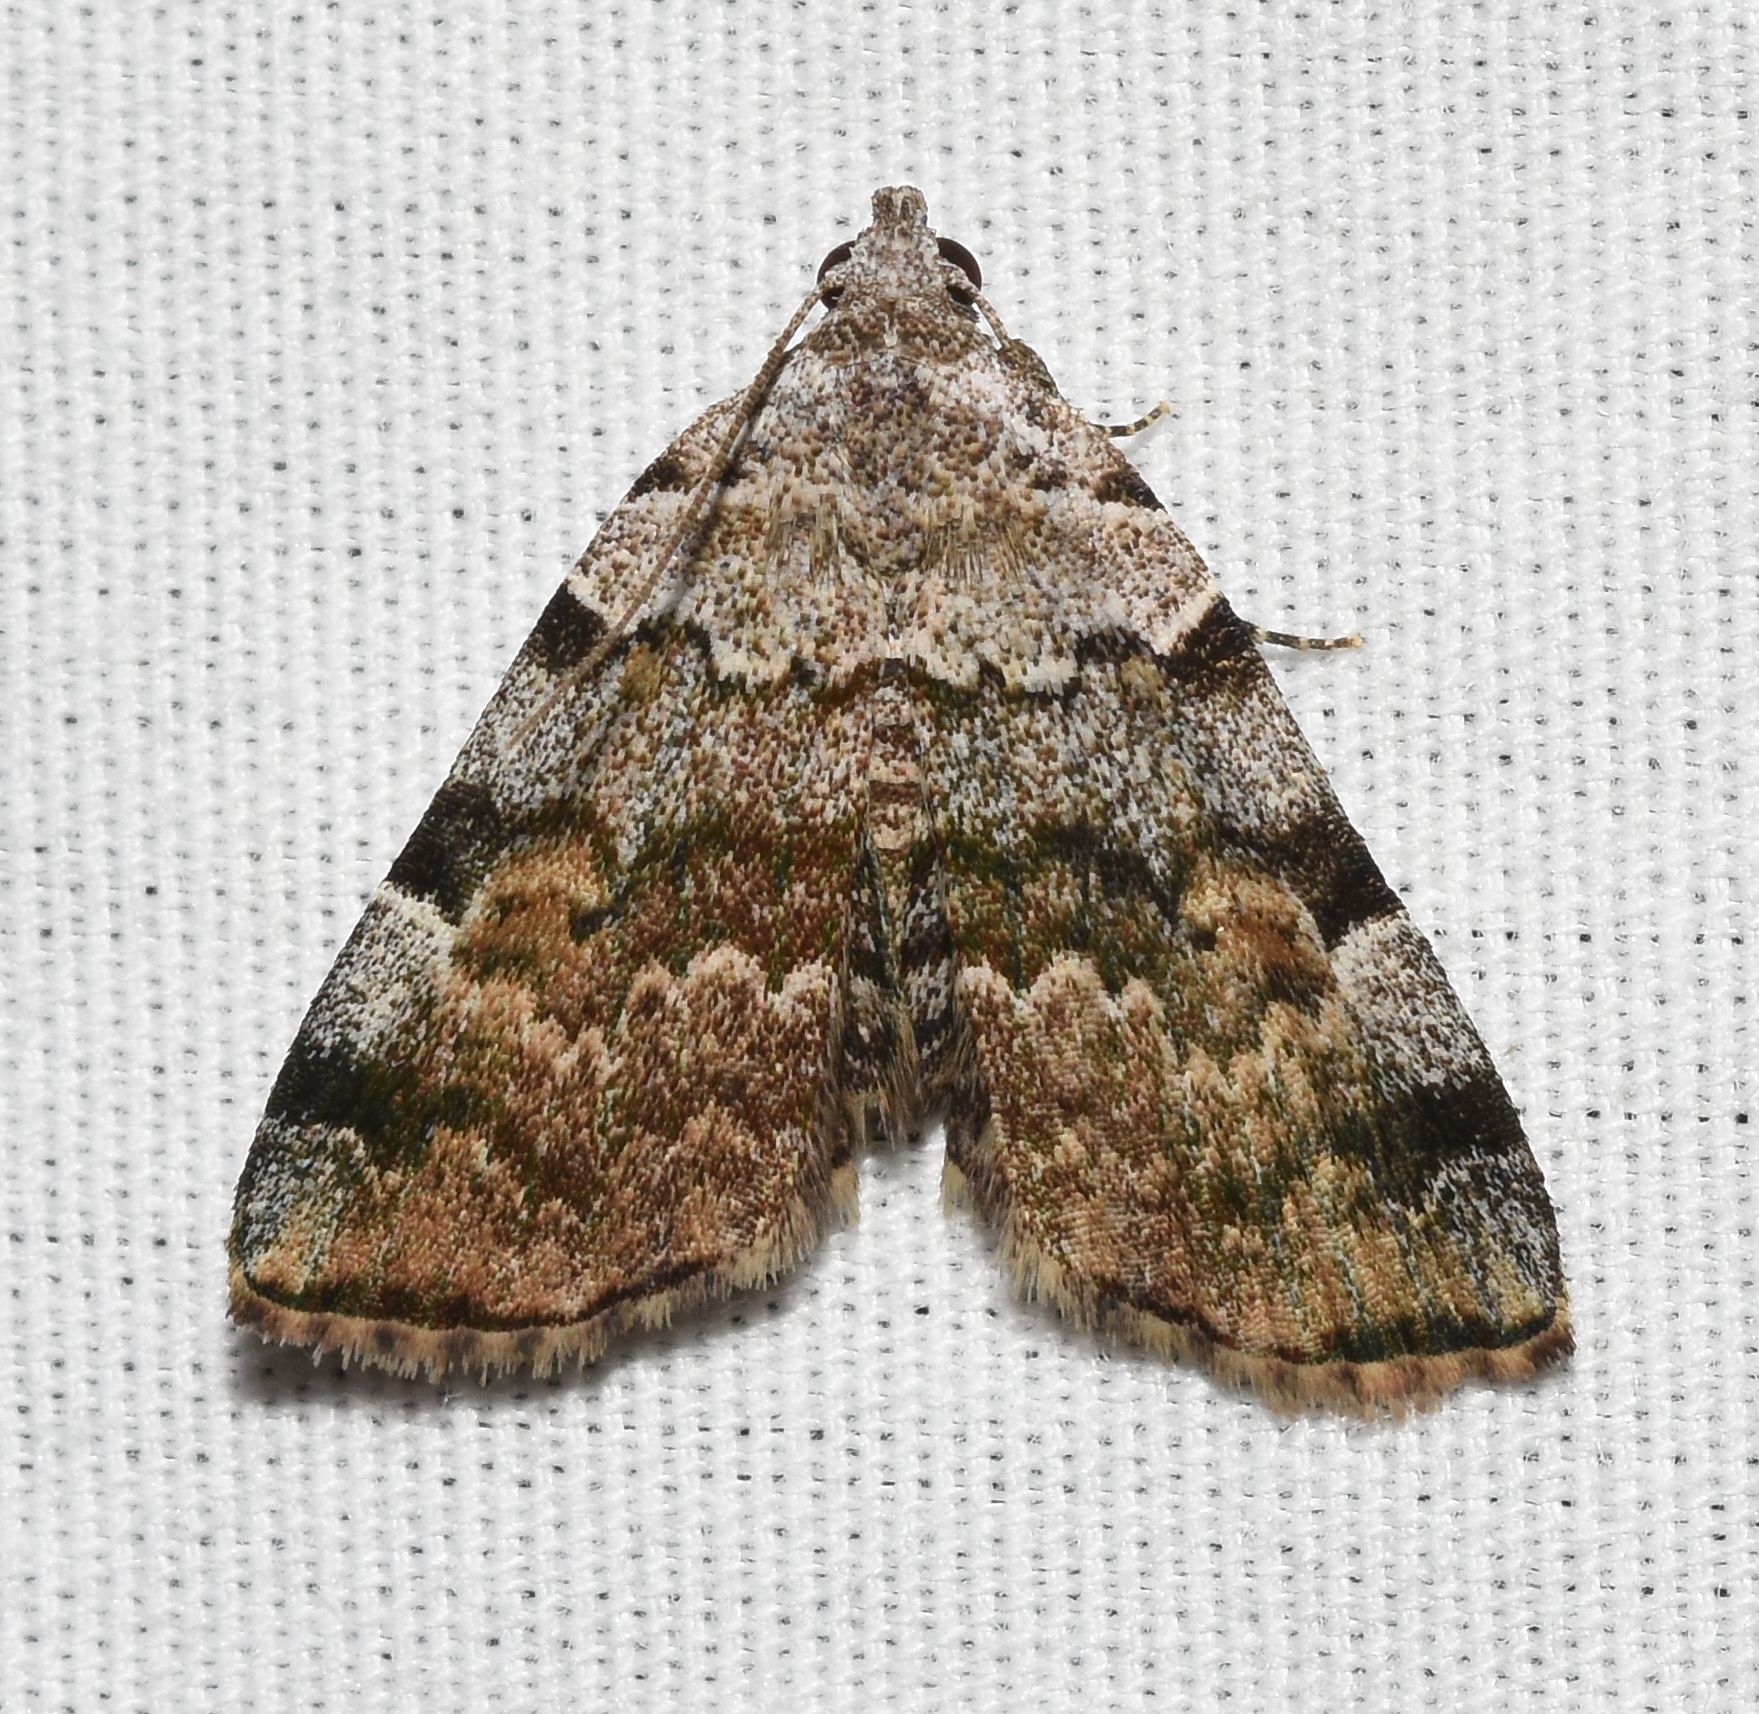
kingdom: Animalia
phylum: Arthropoda
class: Insecta
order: Lepidoptera
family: Erebidae
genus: Idia
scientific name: Idia americalis
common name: American idia moth
